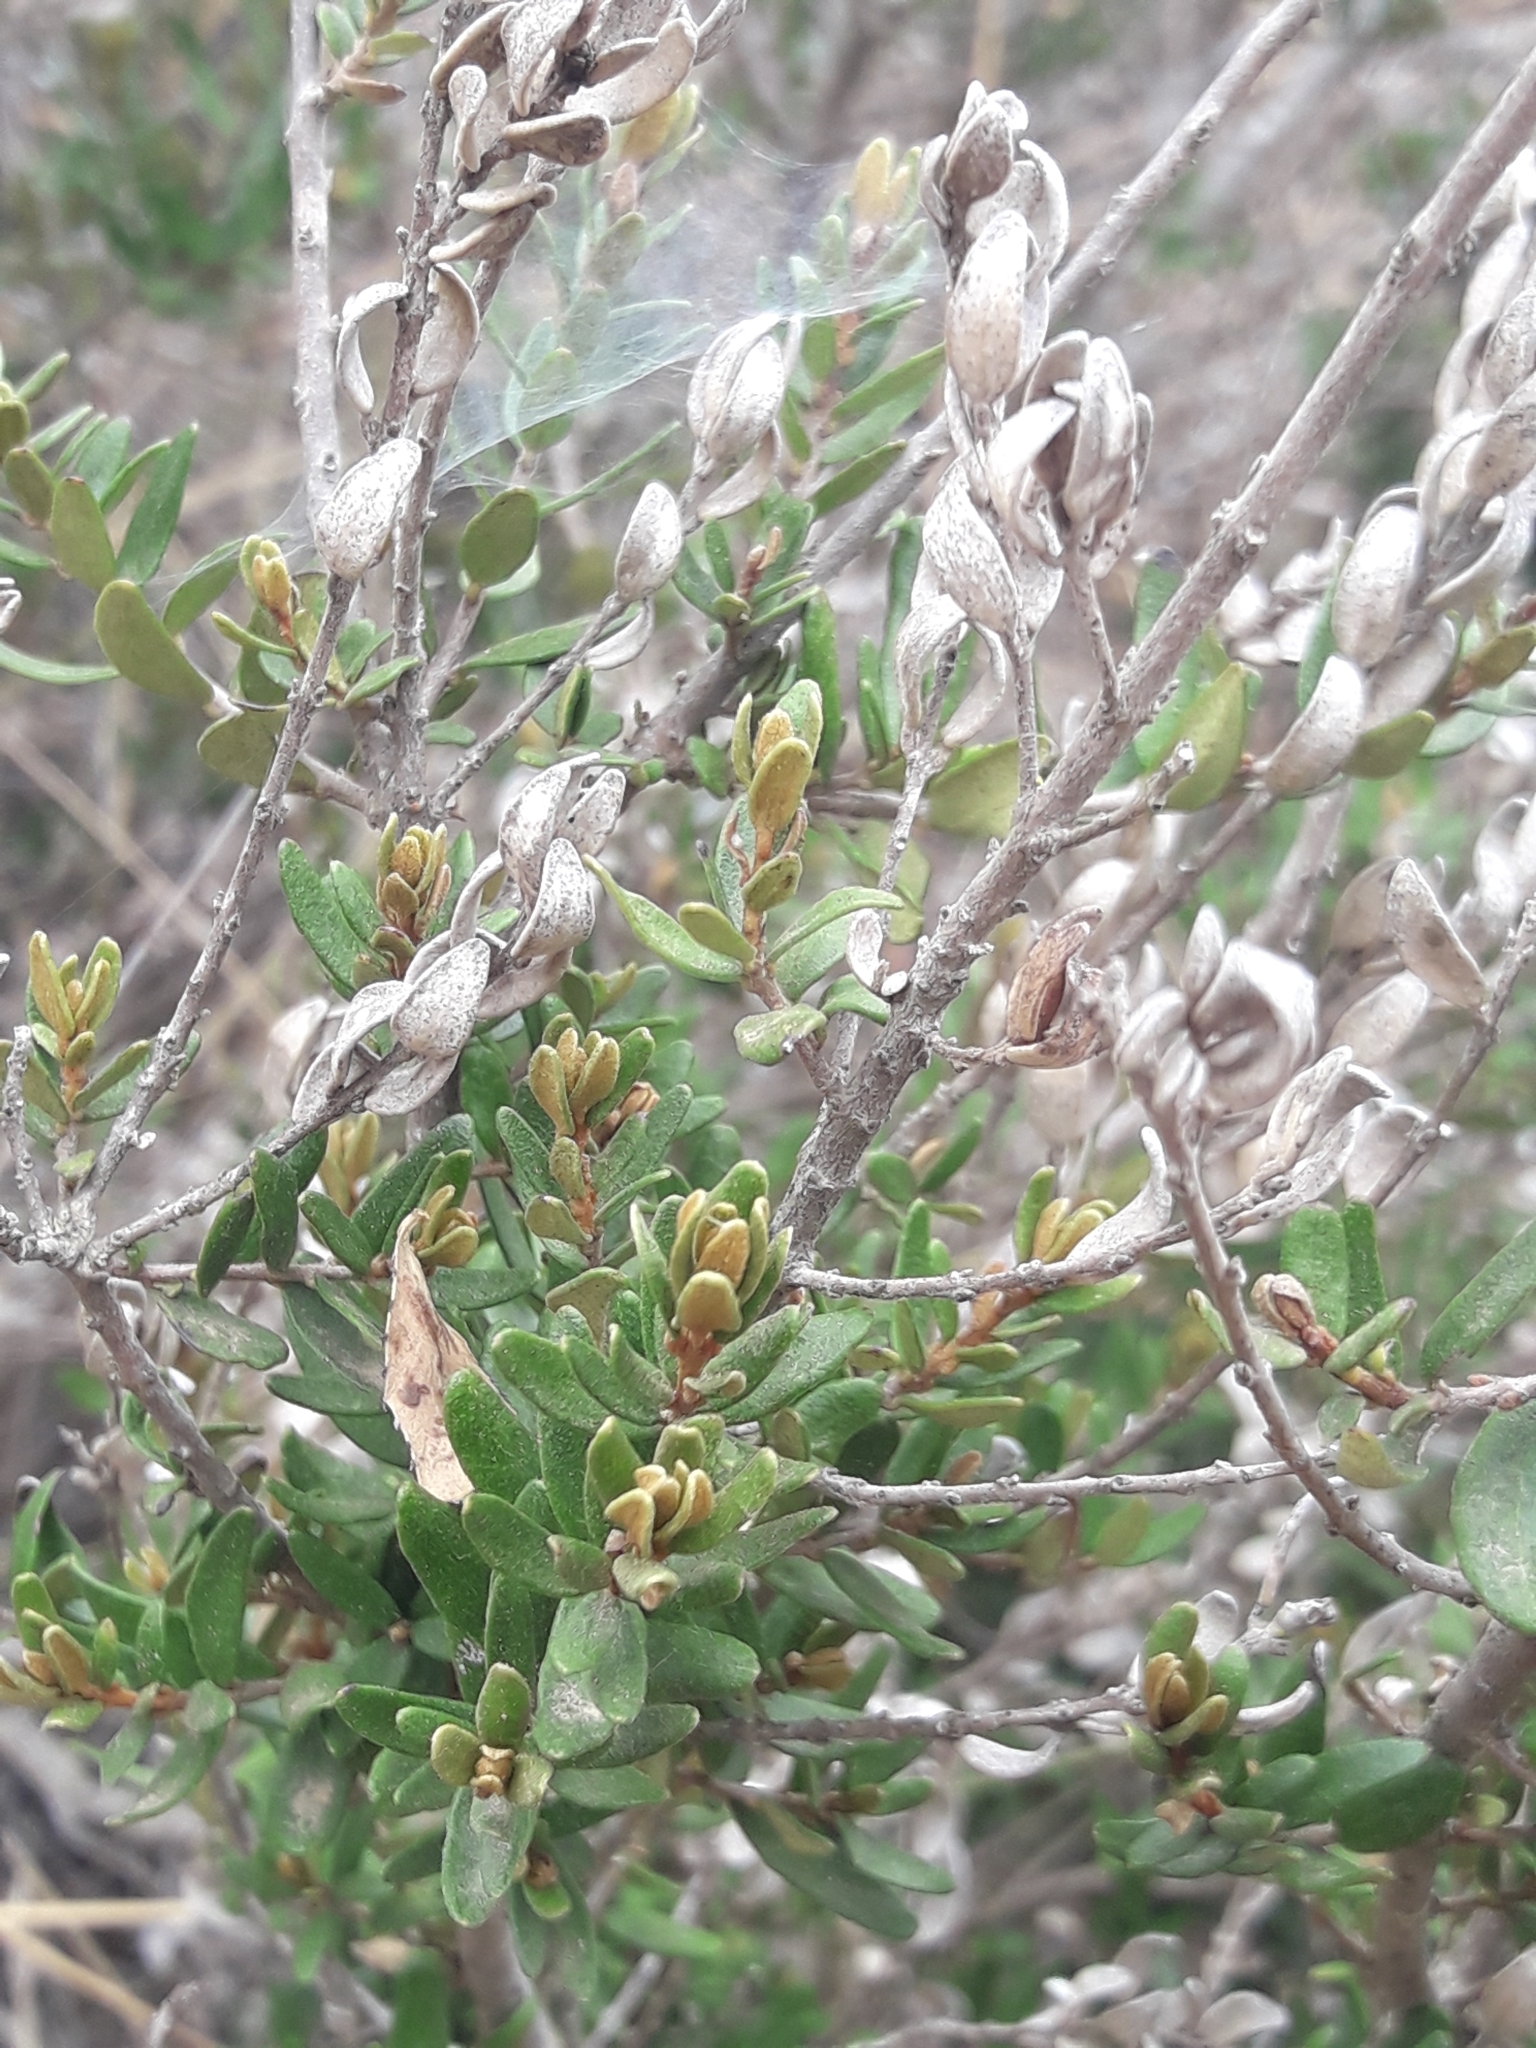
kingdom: Plantae
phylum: Tracheophyta
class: Magnoliopsida
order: Myrtales
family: Myrtaceae
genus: Myrceugenia
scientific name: Myrceugenia rufa
